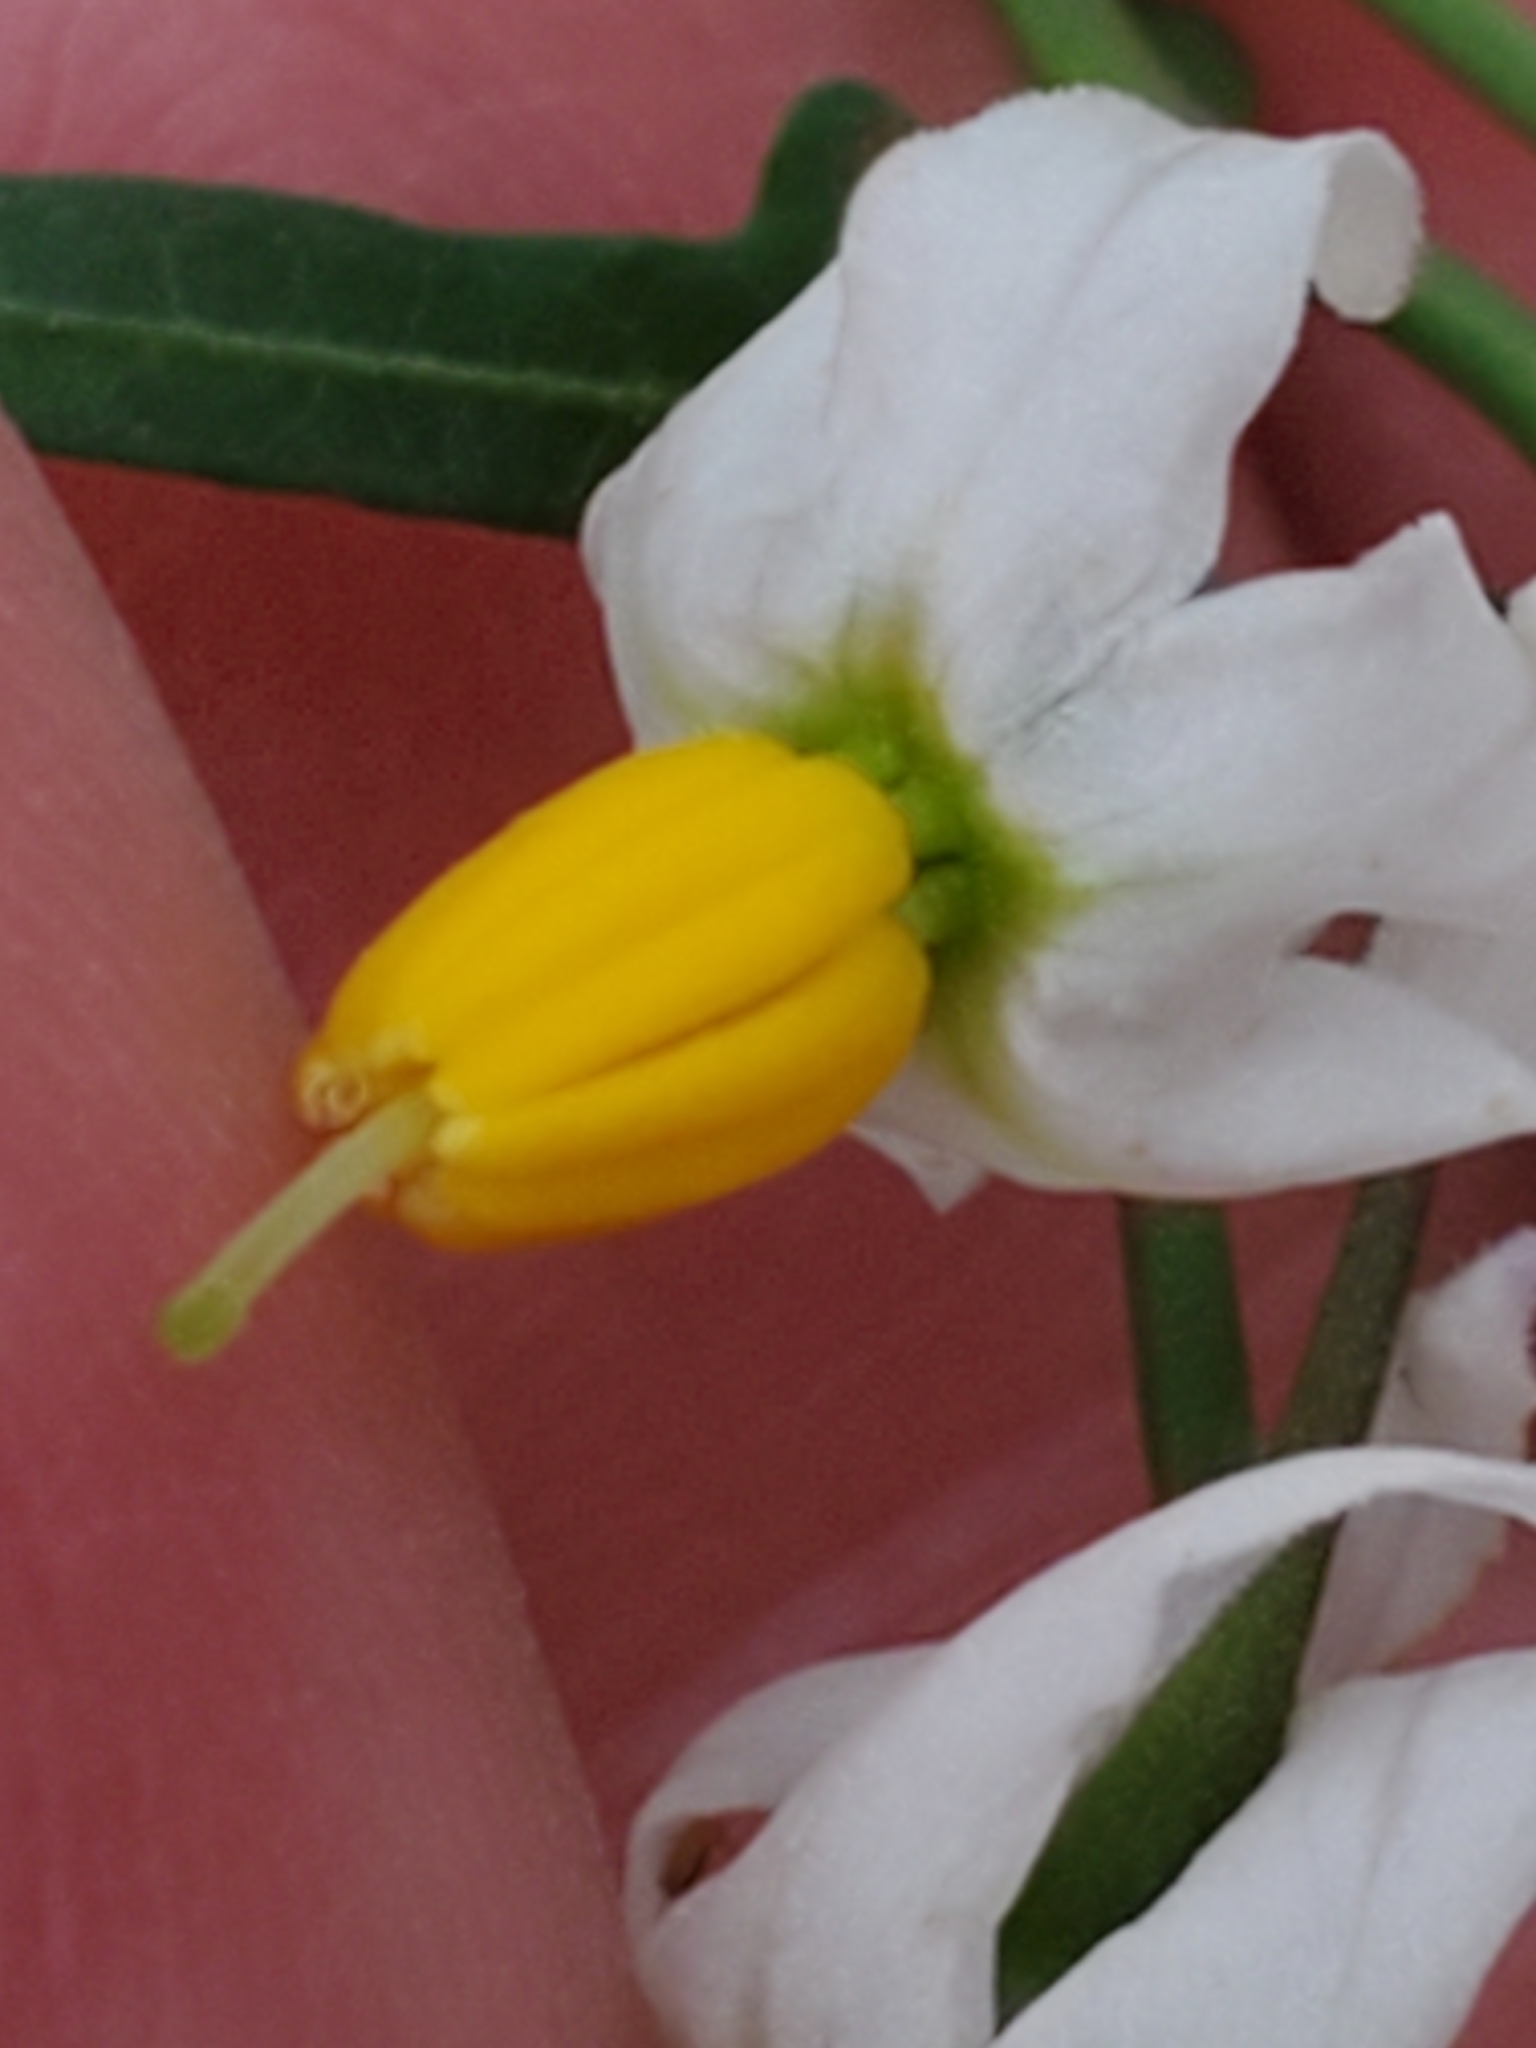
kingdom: Plantae
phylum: Tracheophyta
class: Magnoliopsida
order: Solanales
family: Solanaceae
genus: Solanum
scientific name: Solanum triquetrum
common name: Texas nightshade
